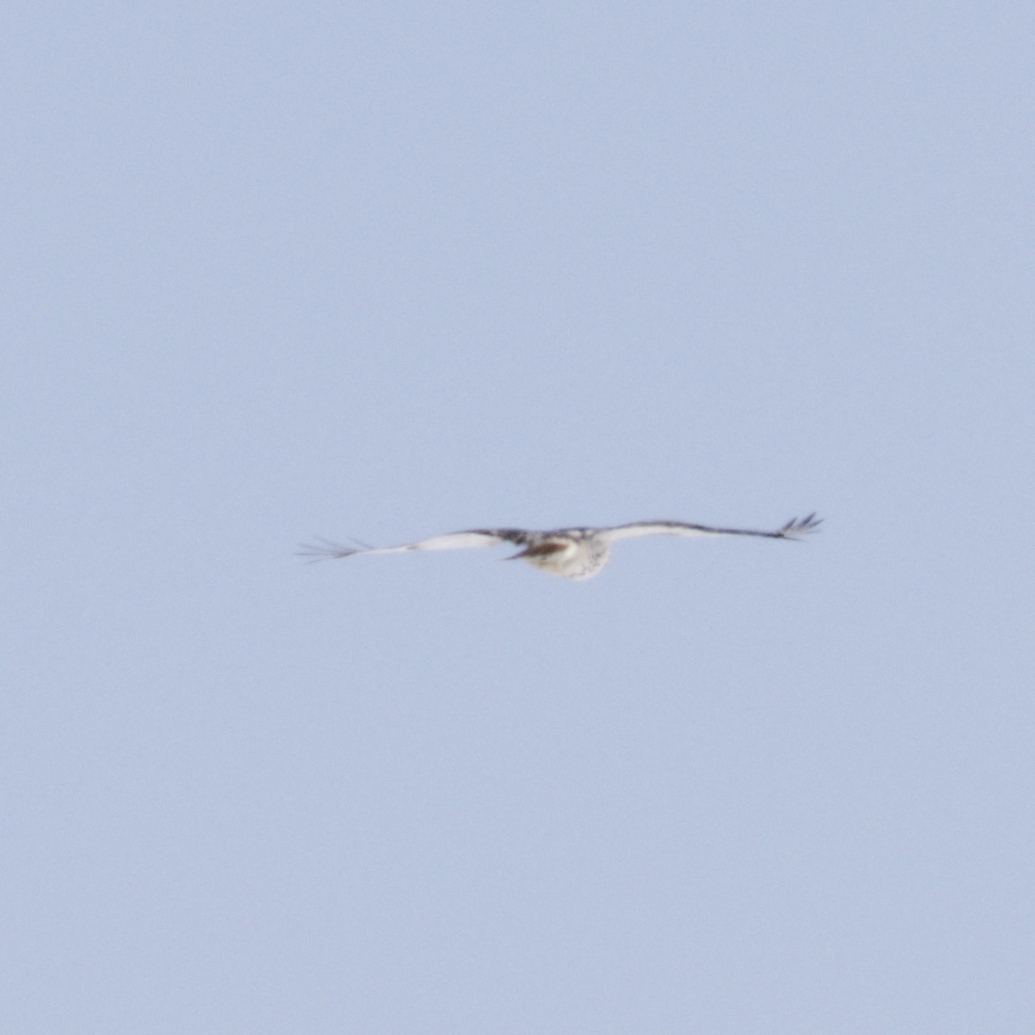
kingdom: Animalia
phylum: Chordata
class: Aves
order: Accipitriformes
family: Accipitridae
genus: Buteo
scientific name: Buteo jamaicensis
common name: Red-tailed hawk
